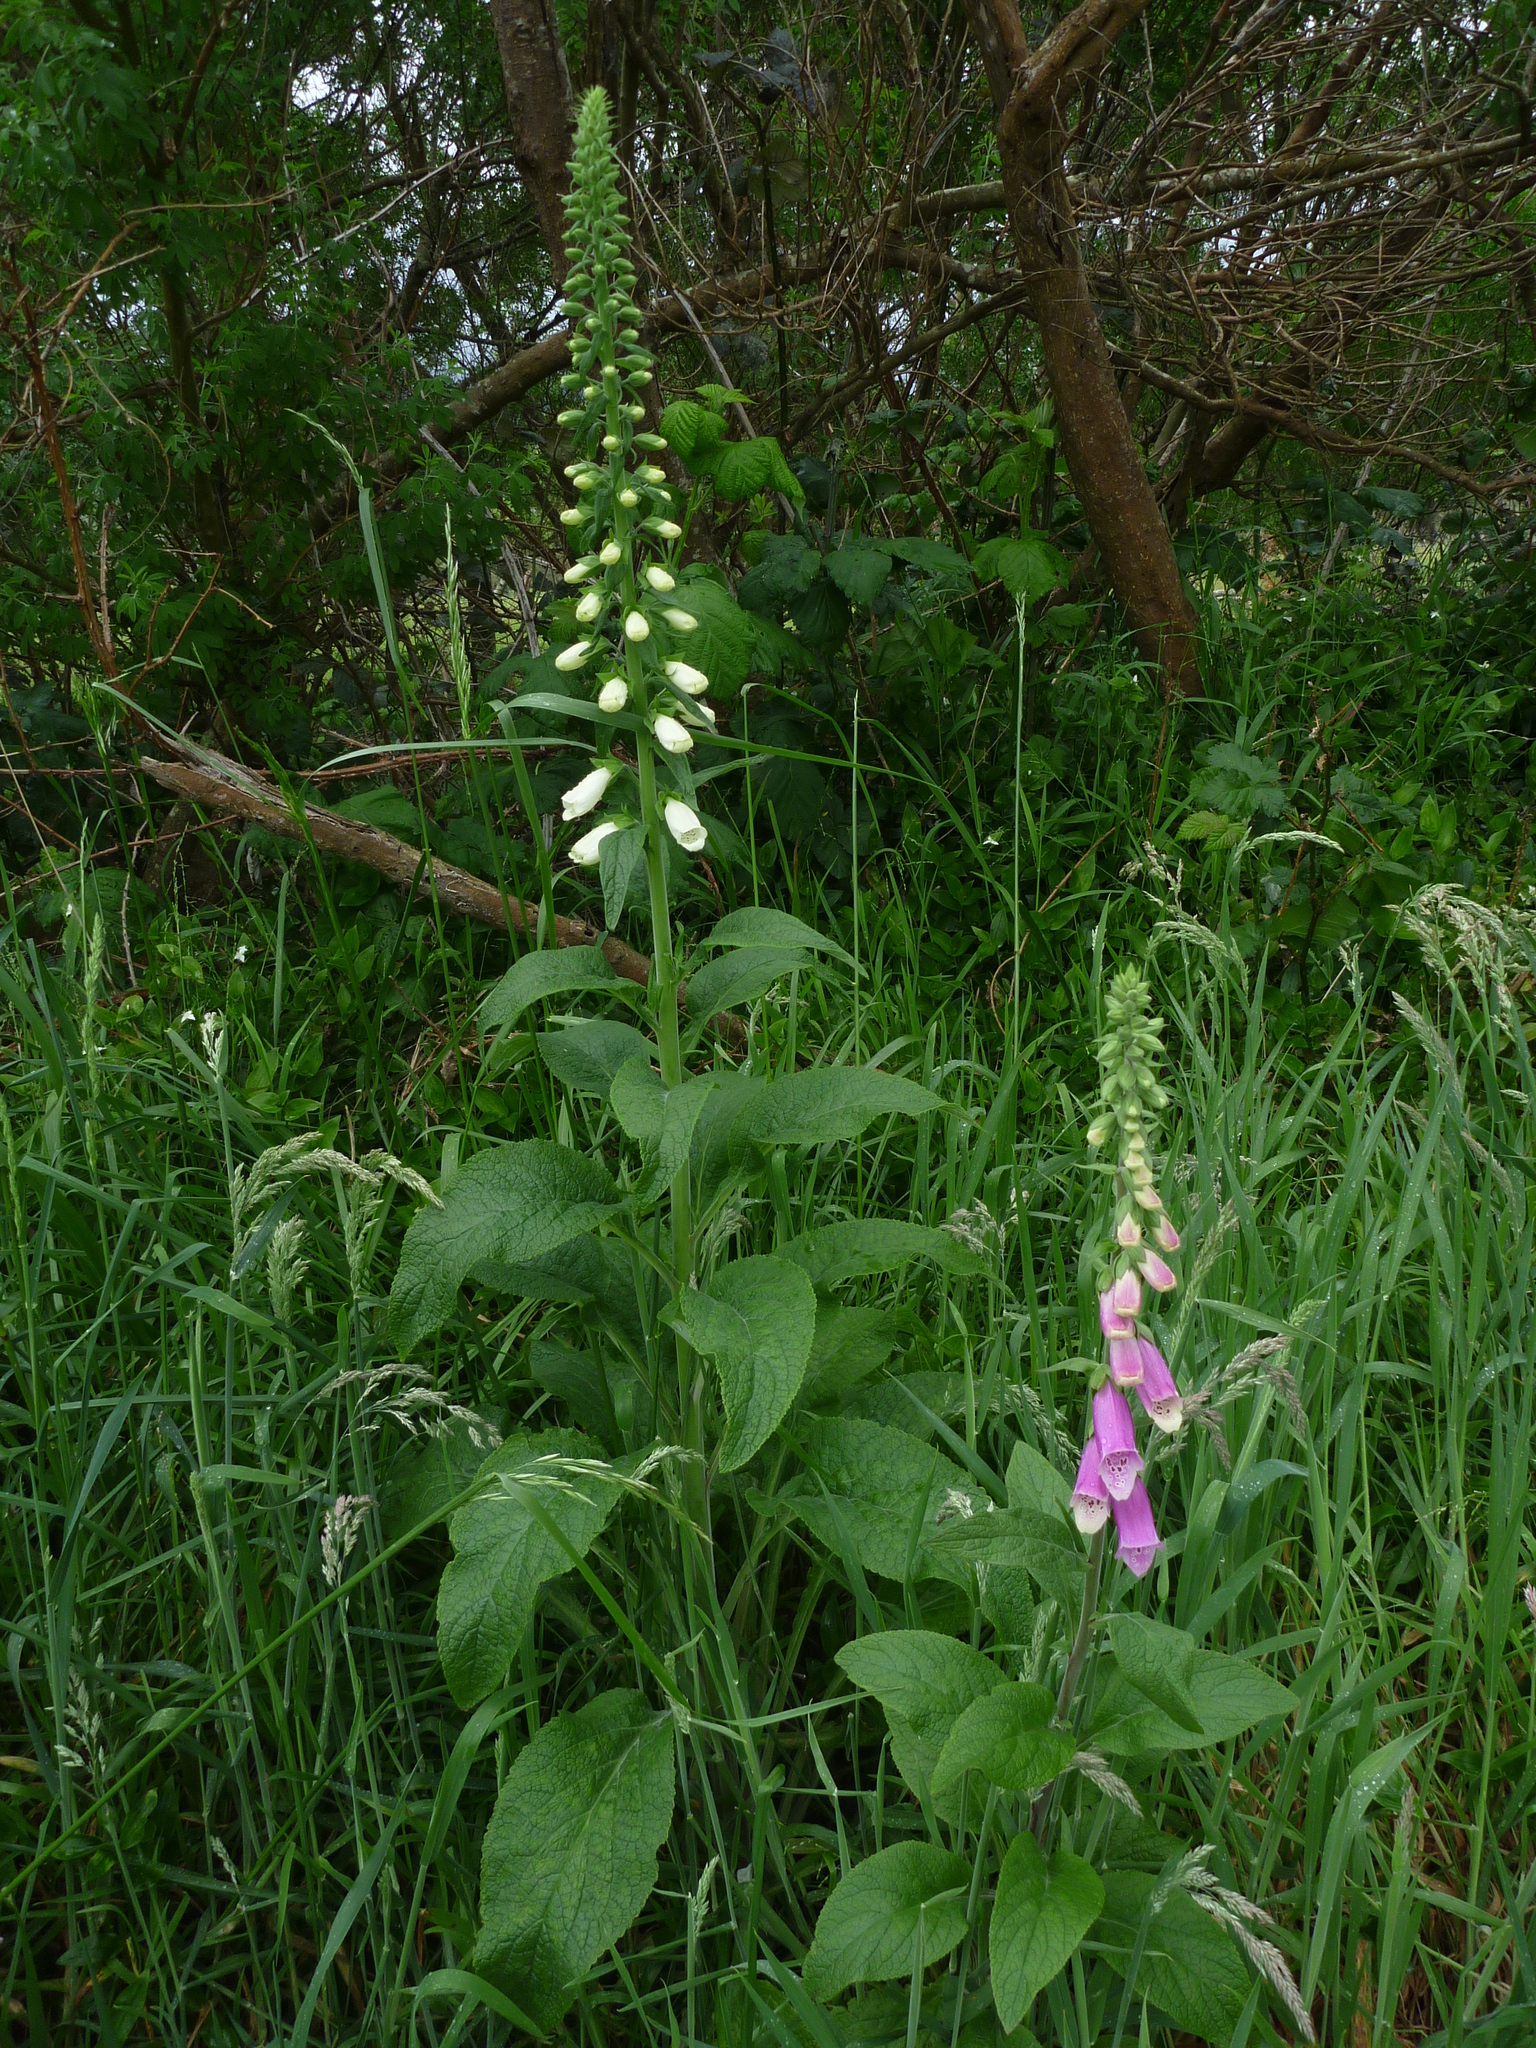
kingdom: Plantae
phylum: Tracheophyta
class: Magnoliopsida
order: Lamiales
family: Plantaginaceae
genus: Digitalis
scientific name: Digitalis purpurea
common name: Foxglove
